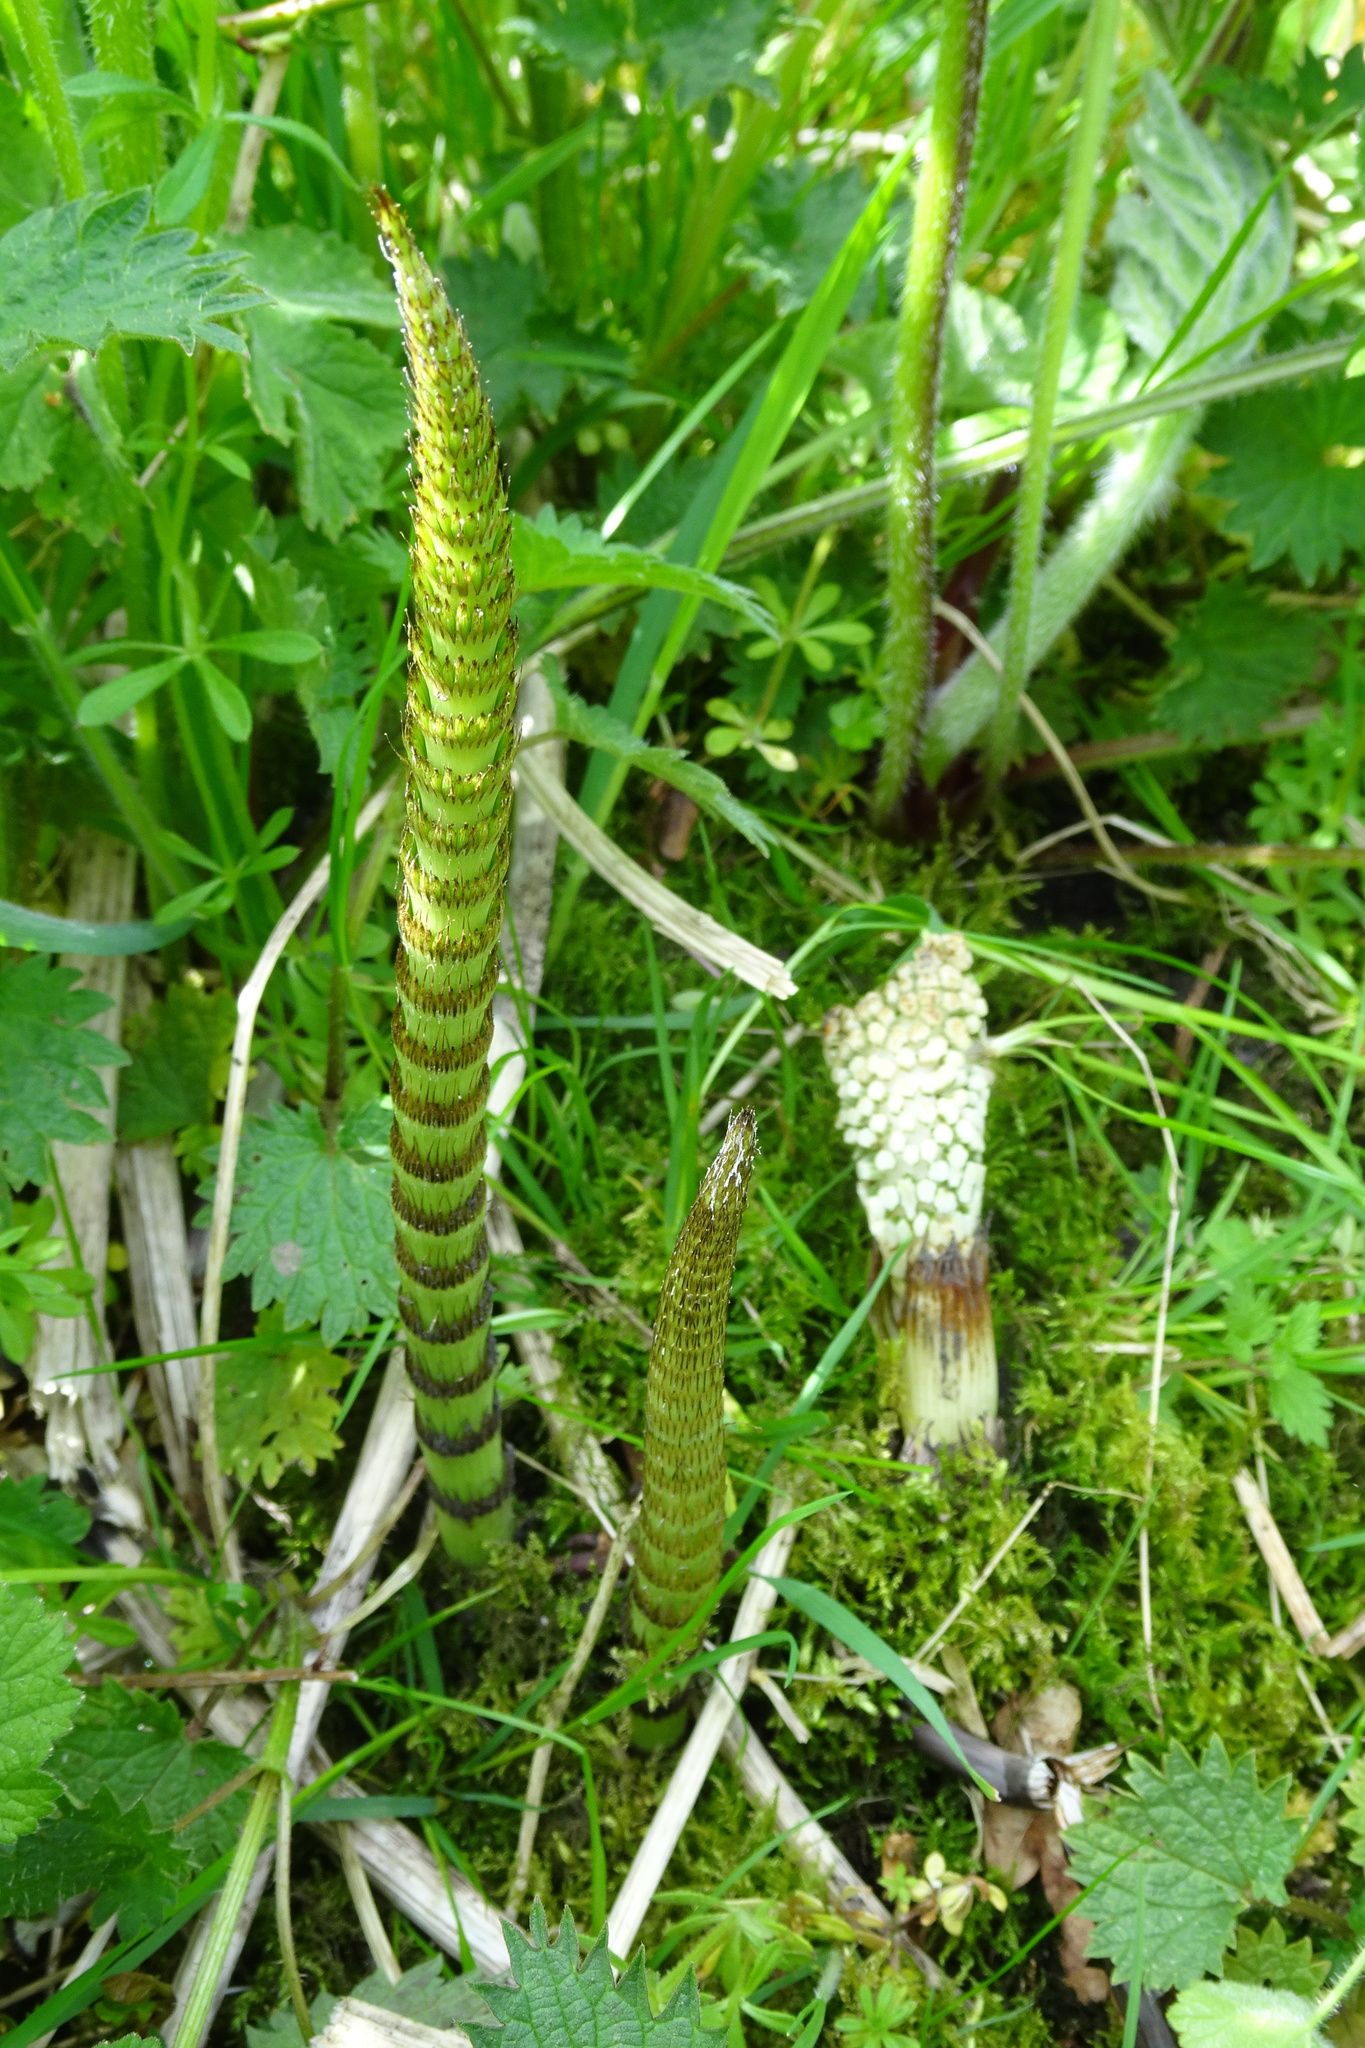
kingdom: Plantae
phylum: Tracheophyta
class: Polypodiopsida
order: Equisetales
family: Equisetaceae
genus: Equisetum
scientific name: Equisetum telmateia
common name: Great horsetail
